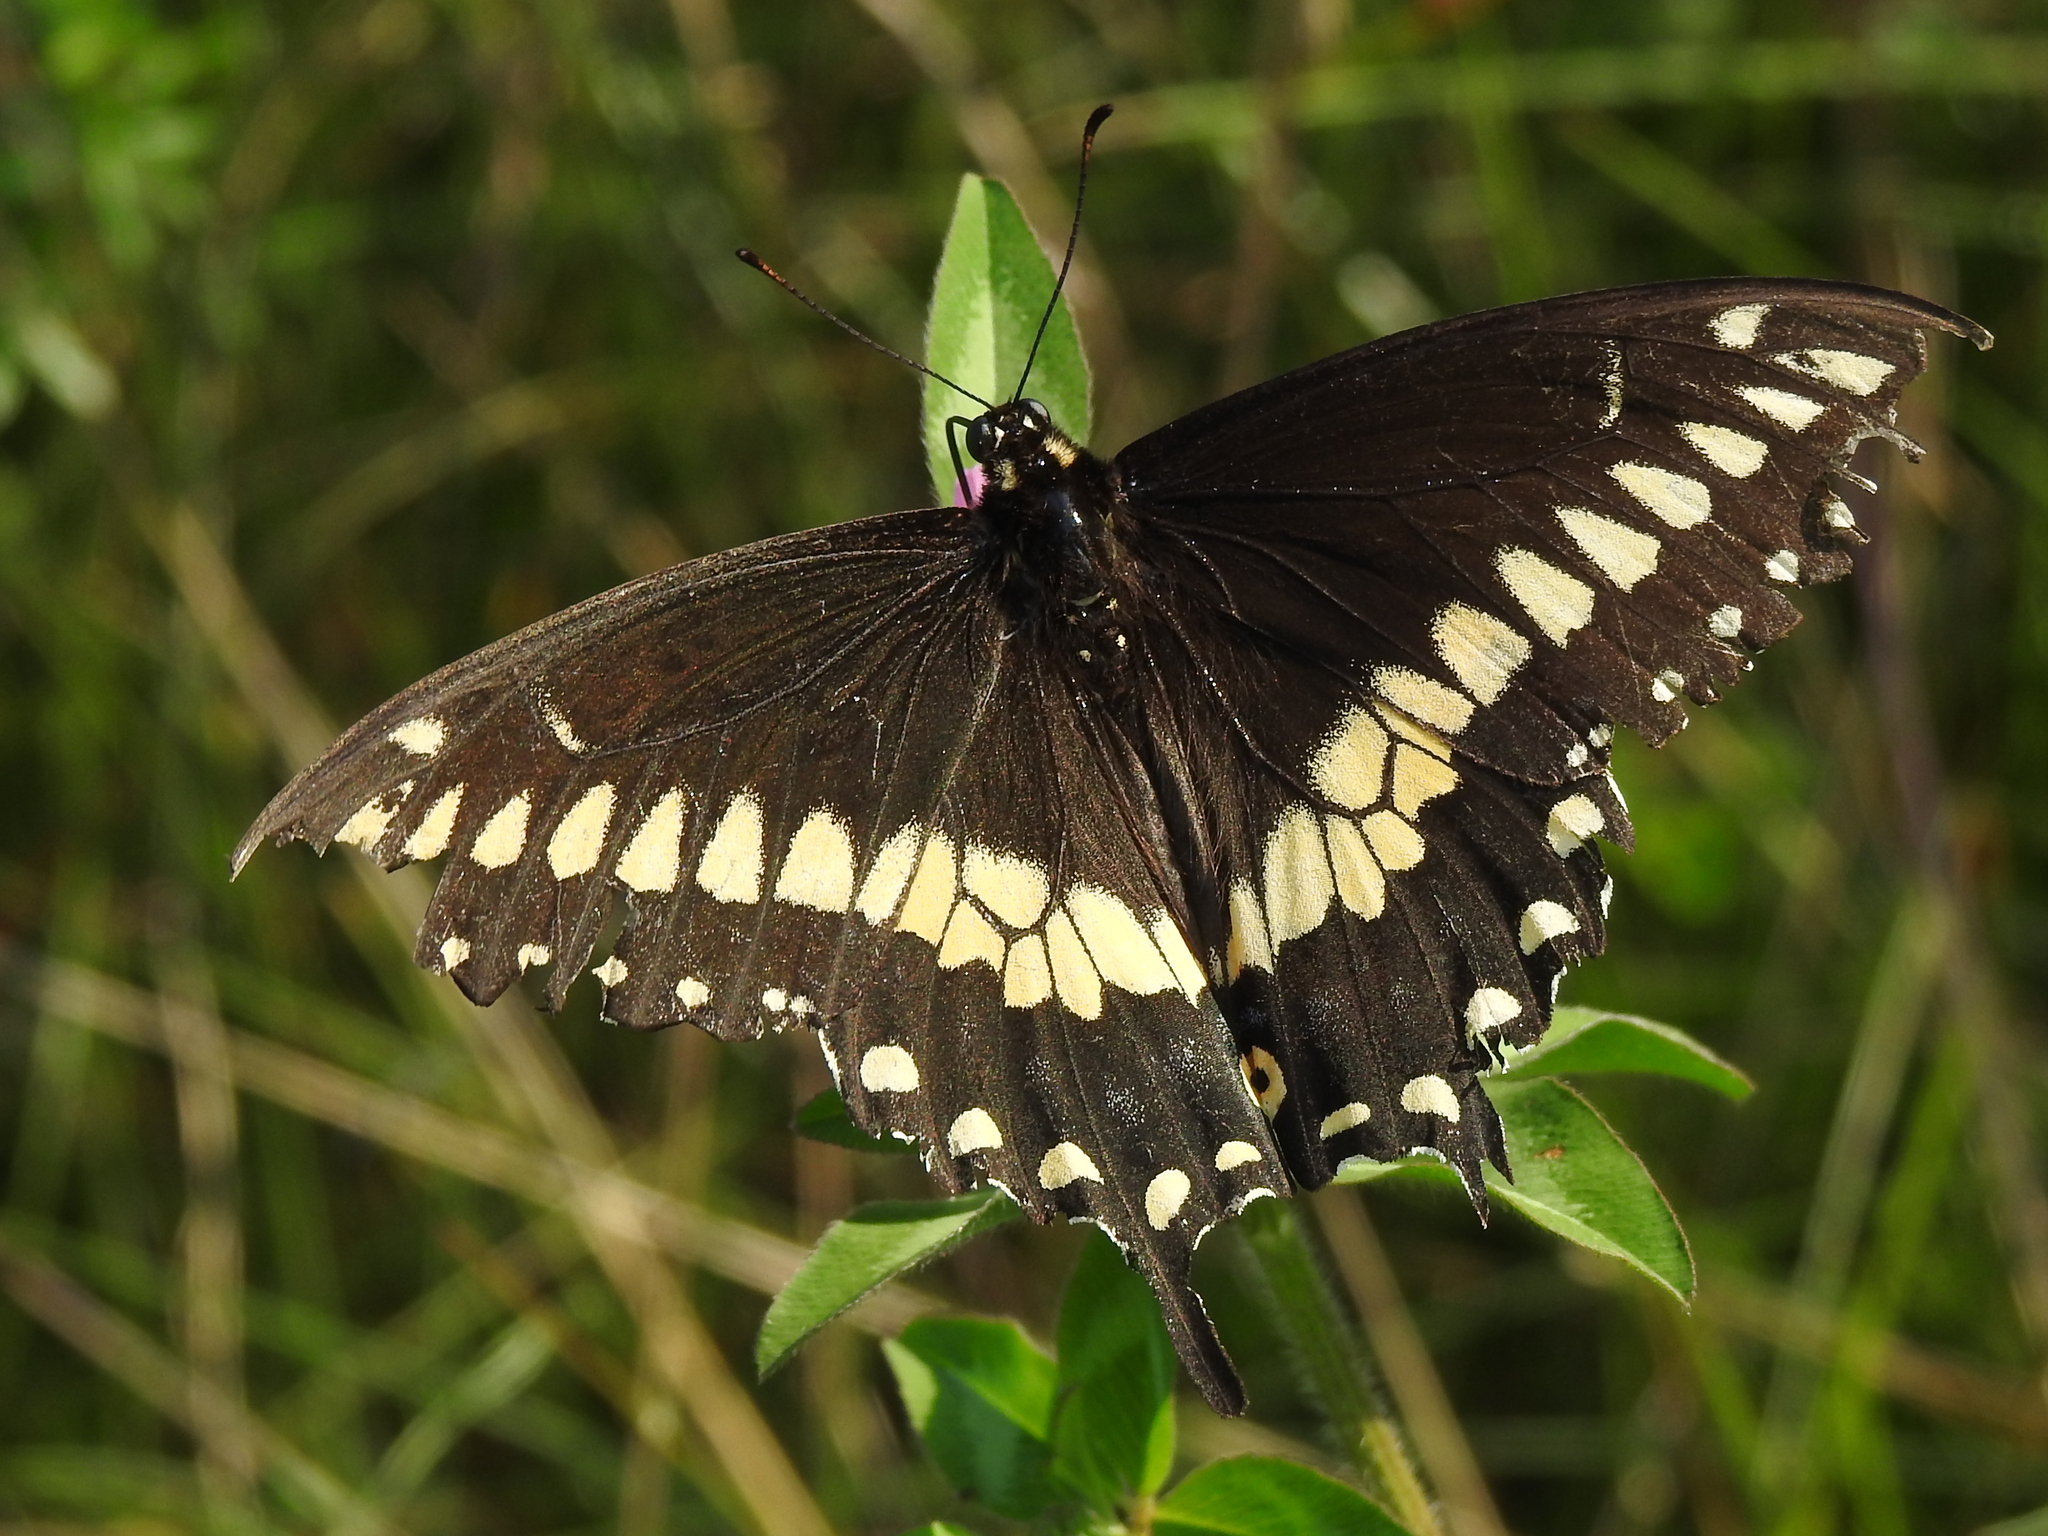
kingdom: Animalia
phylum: Arthropoda
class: Insecta
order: Lepidoptera
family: Papilionidae
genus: Papilio
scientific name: Papilio polyxenes
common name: Black swallowtail
